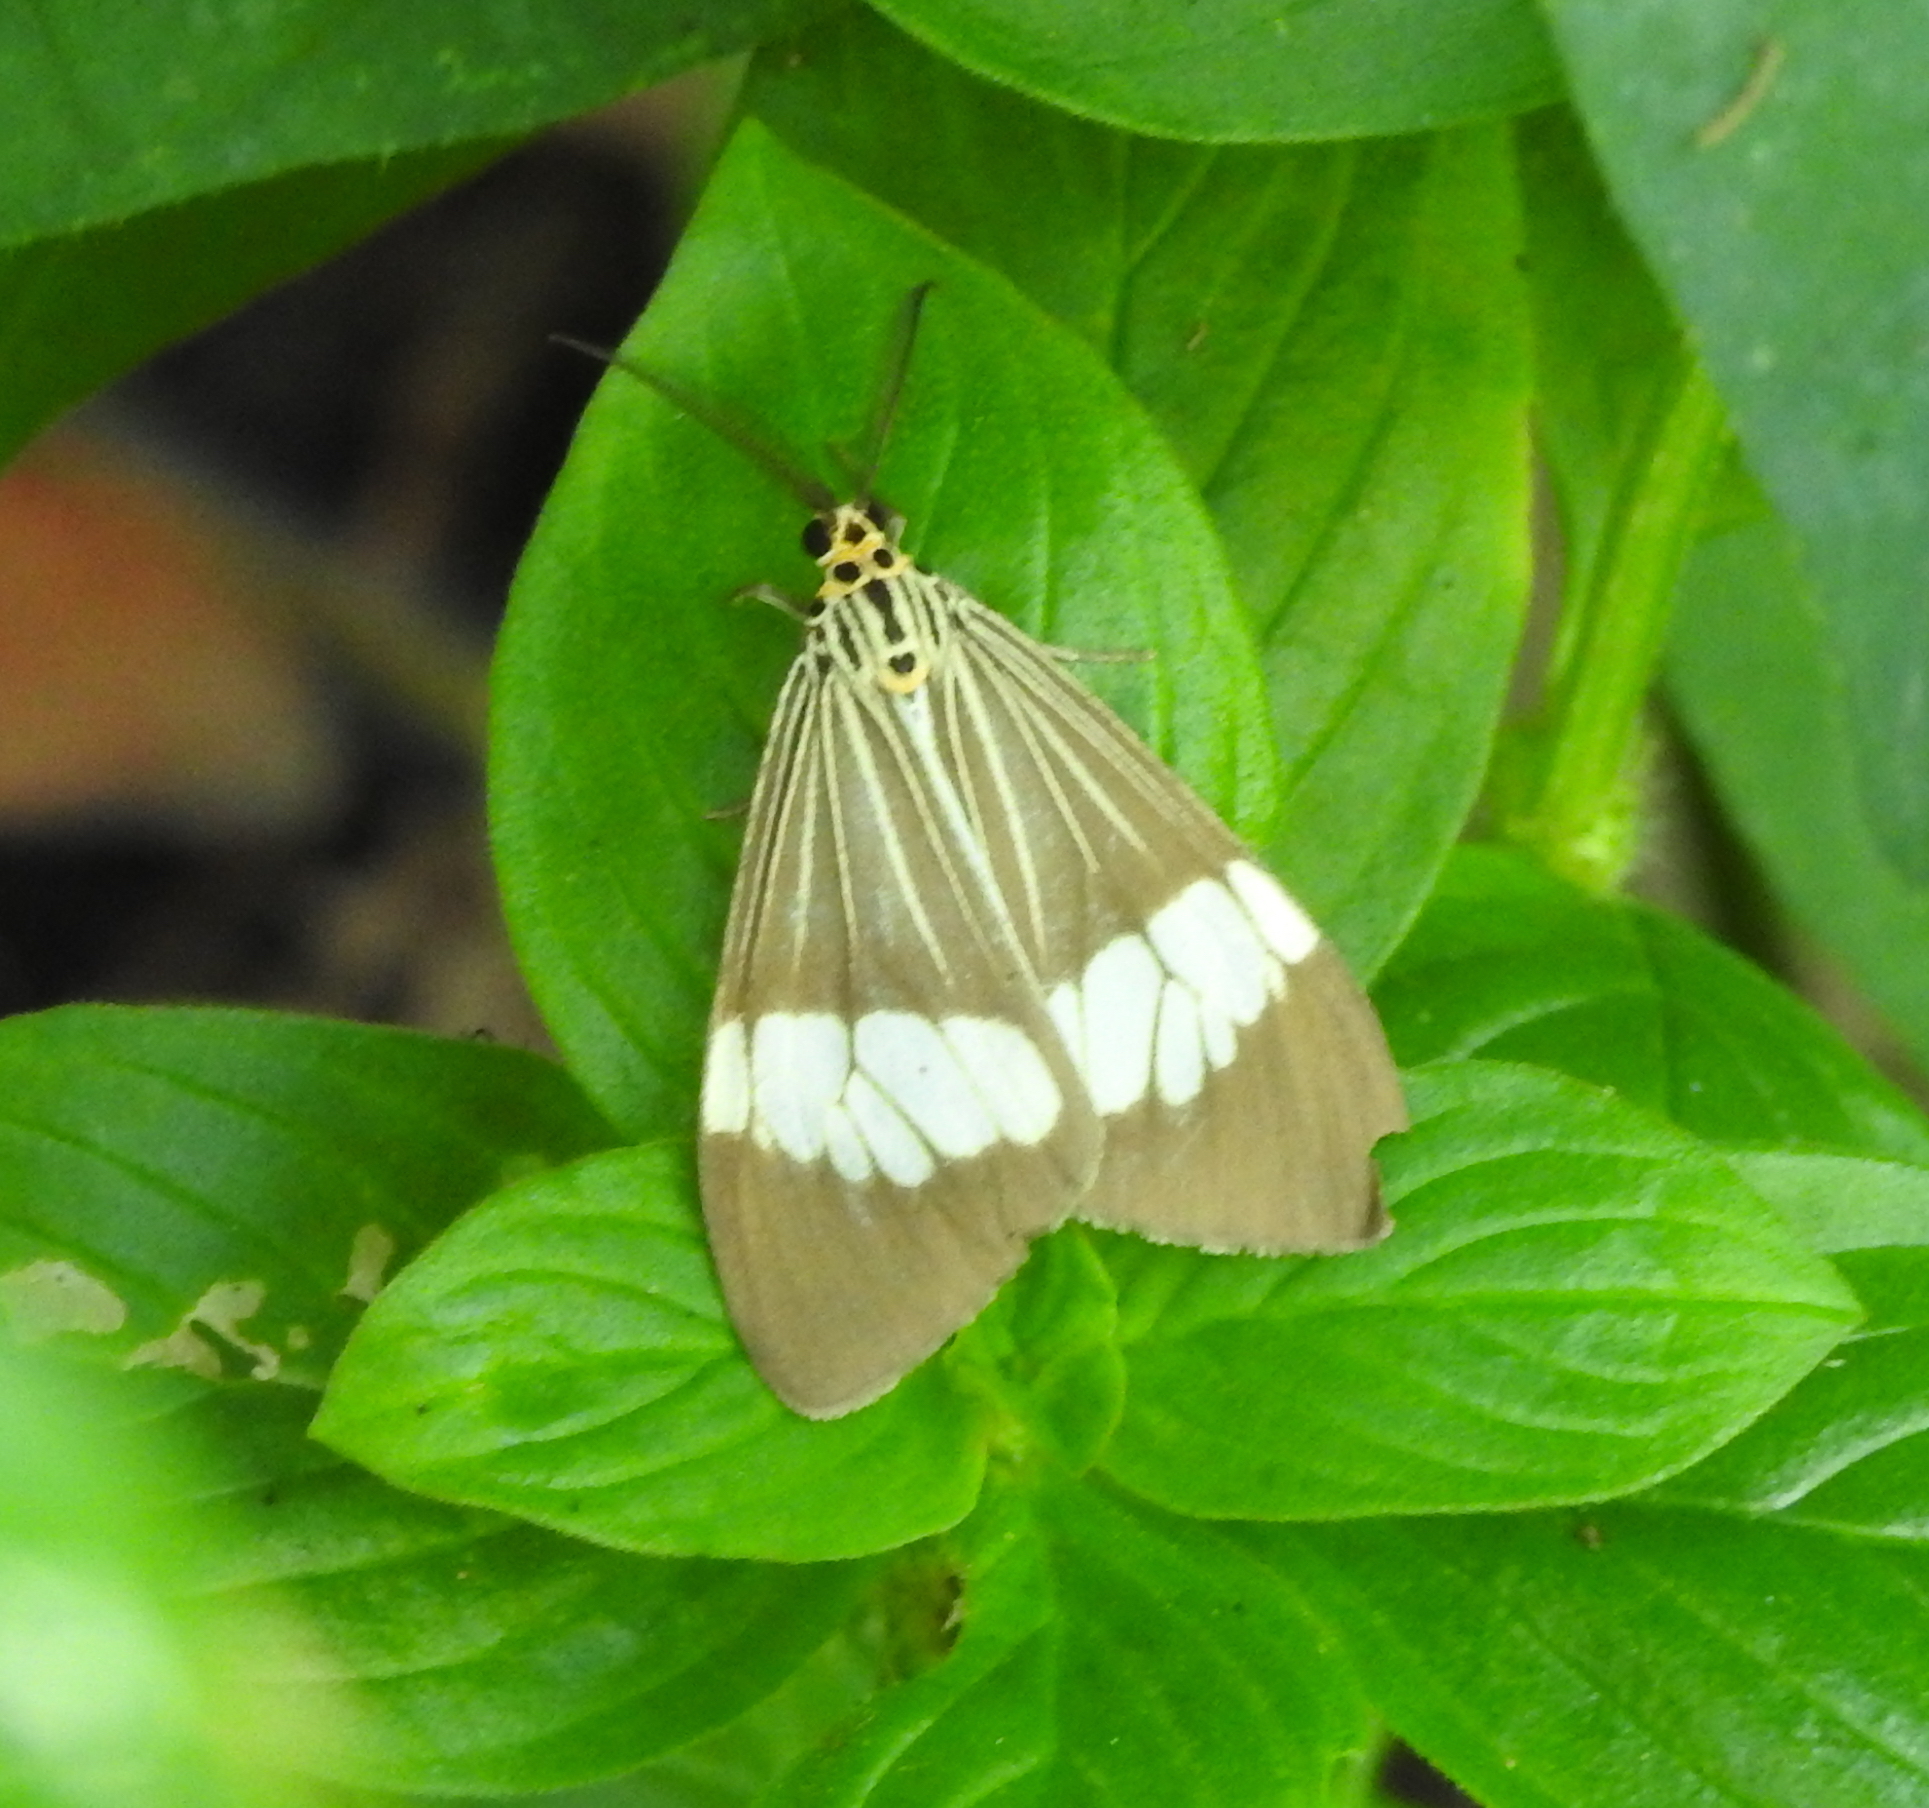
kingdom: Animalia
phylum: Arthropoda
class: Insecta
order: Lepidoptera
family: Erebidae
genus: Nyctemera
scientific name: Nyctemera baulus
